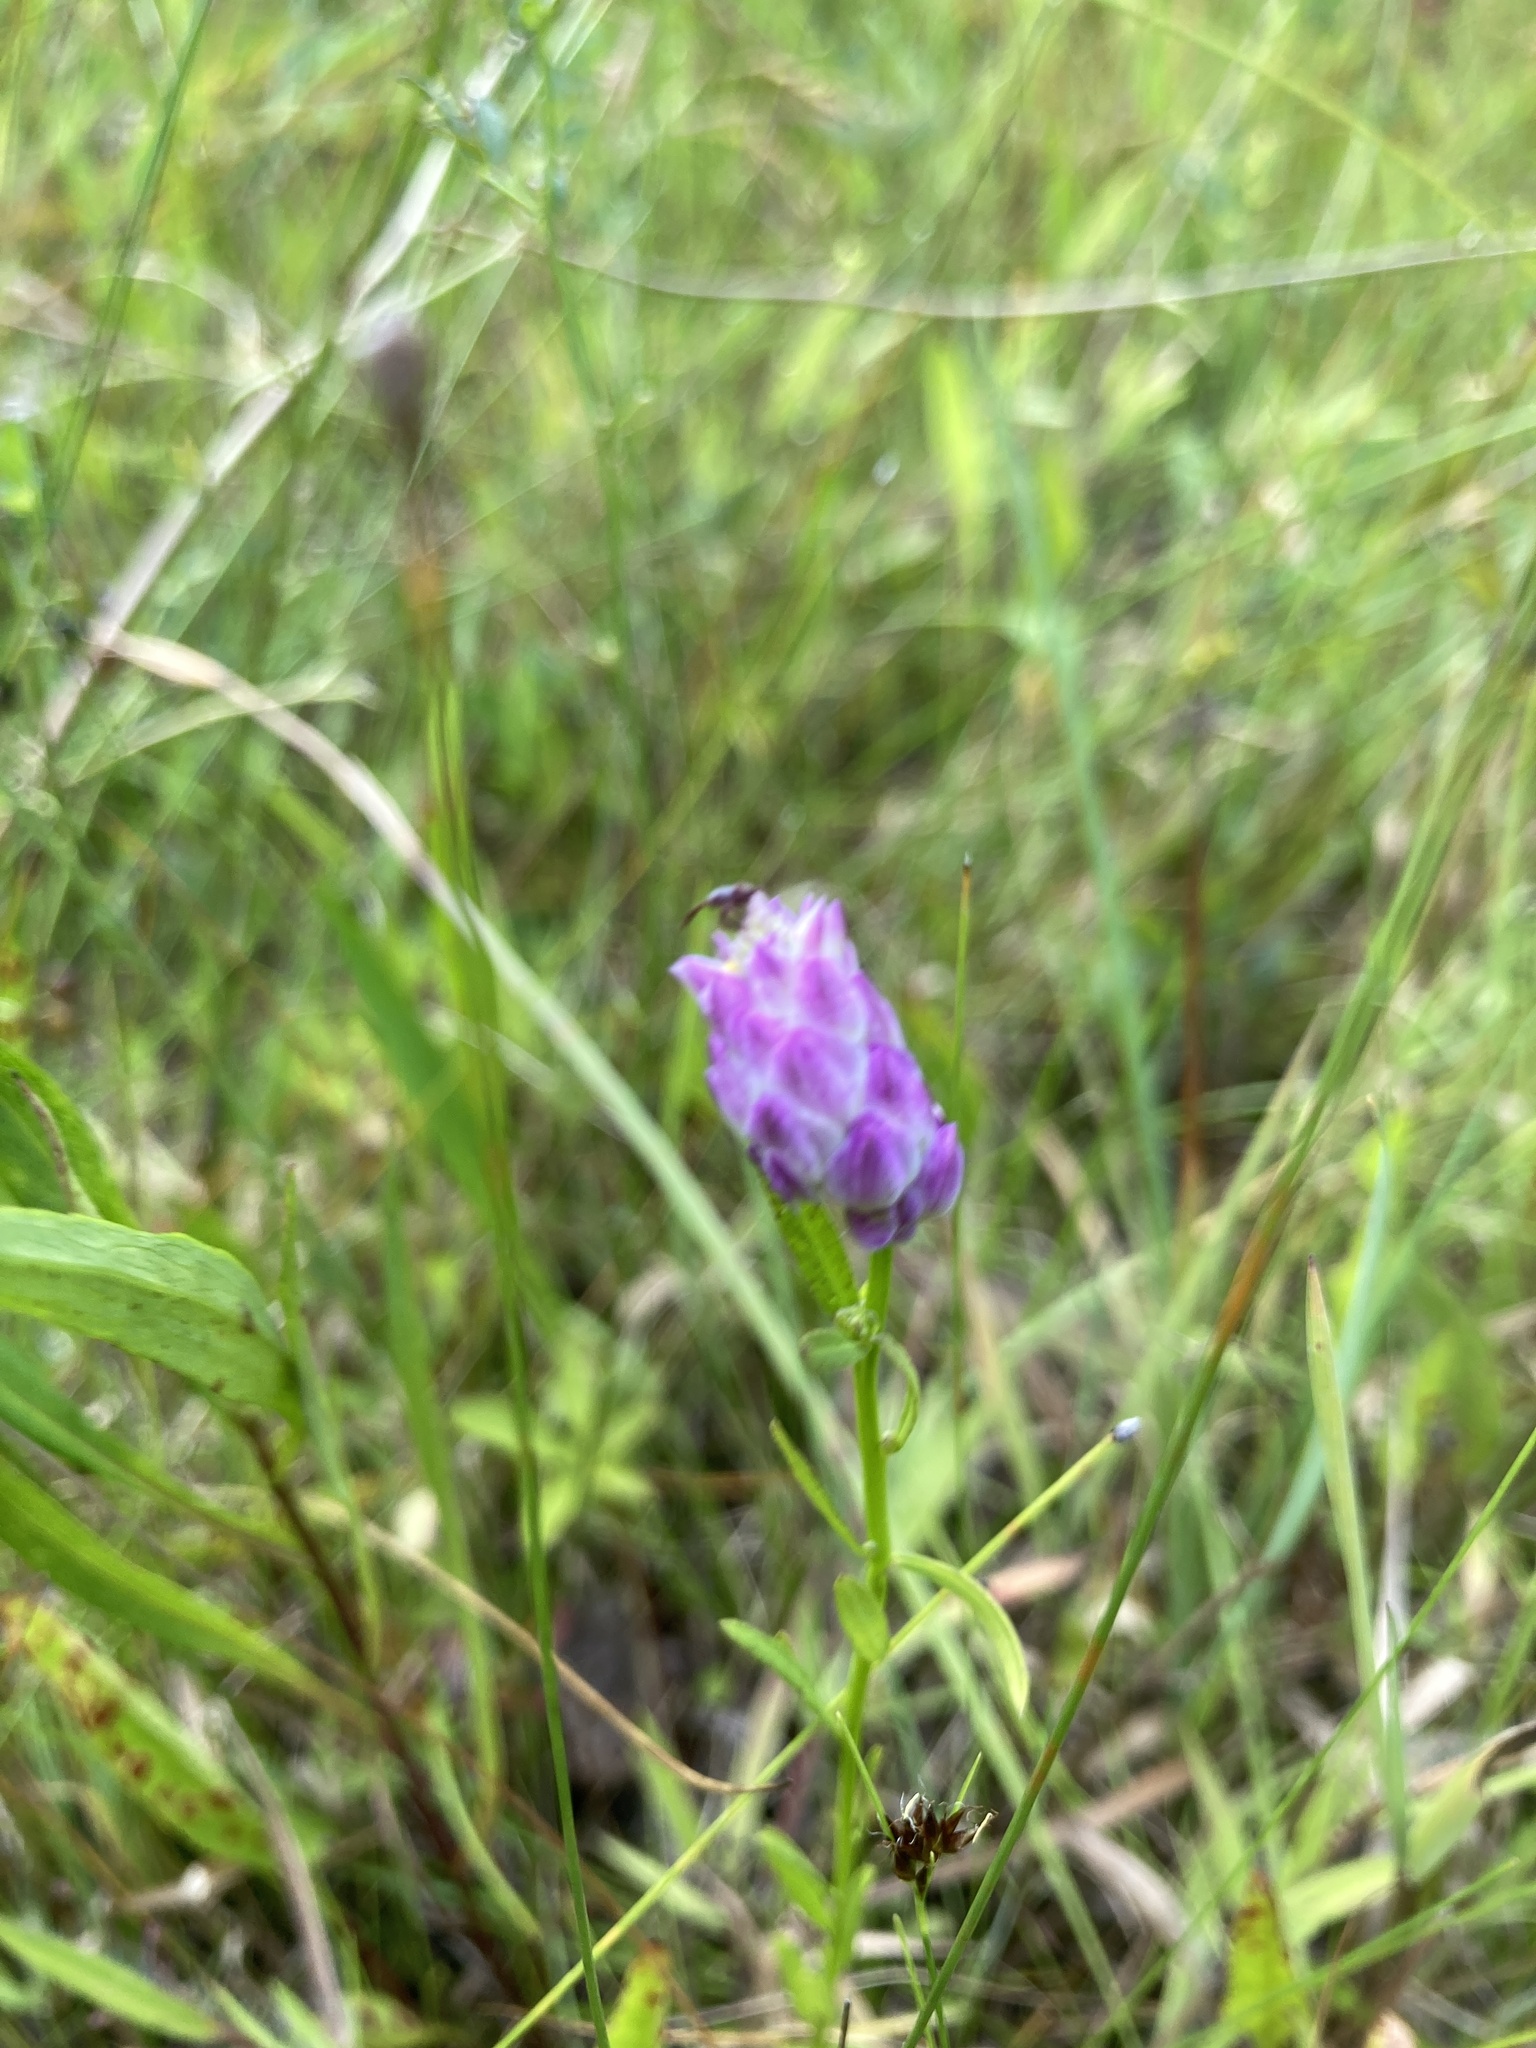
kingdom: Plantae
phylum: Tracheophyta
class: Magnoliopsida
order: Fabales
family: Polygalaceae
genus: Polygala
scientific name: Polygala sanguinea
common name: Blood milkwort
